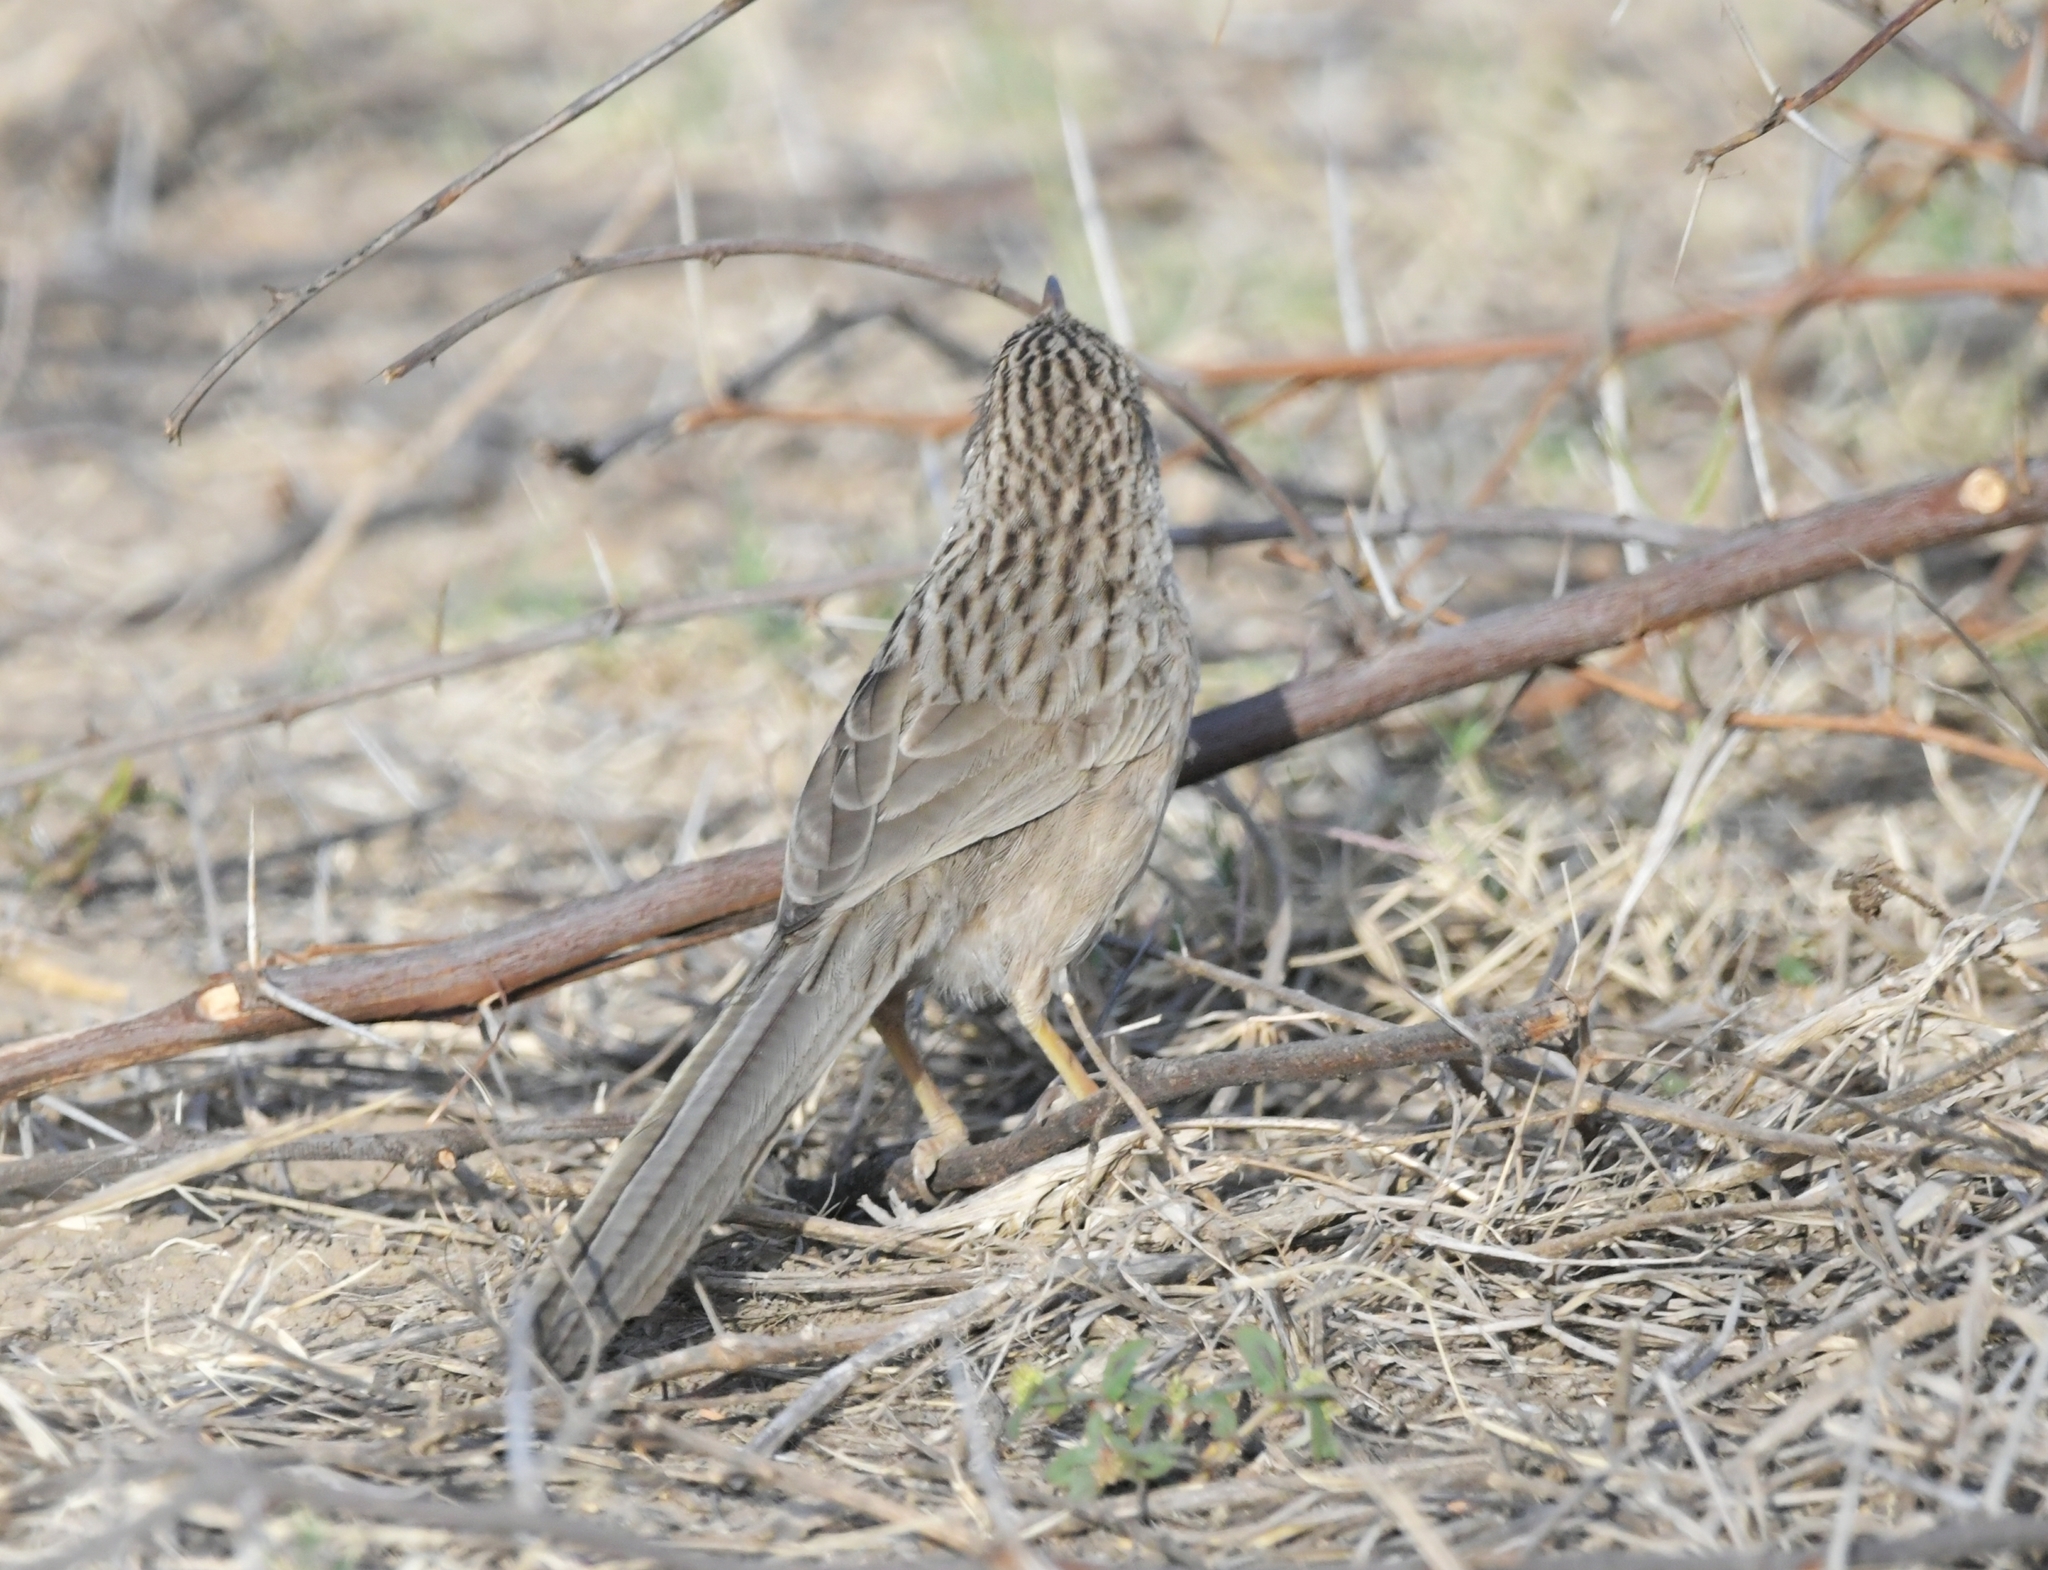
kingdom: Animalia
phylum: Chordata
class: Aves
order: Passeriformes
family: Leiothrichidae
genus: Turdoides
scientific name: Turdoides caudata
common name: Common babbler
